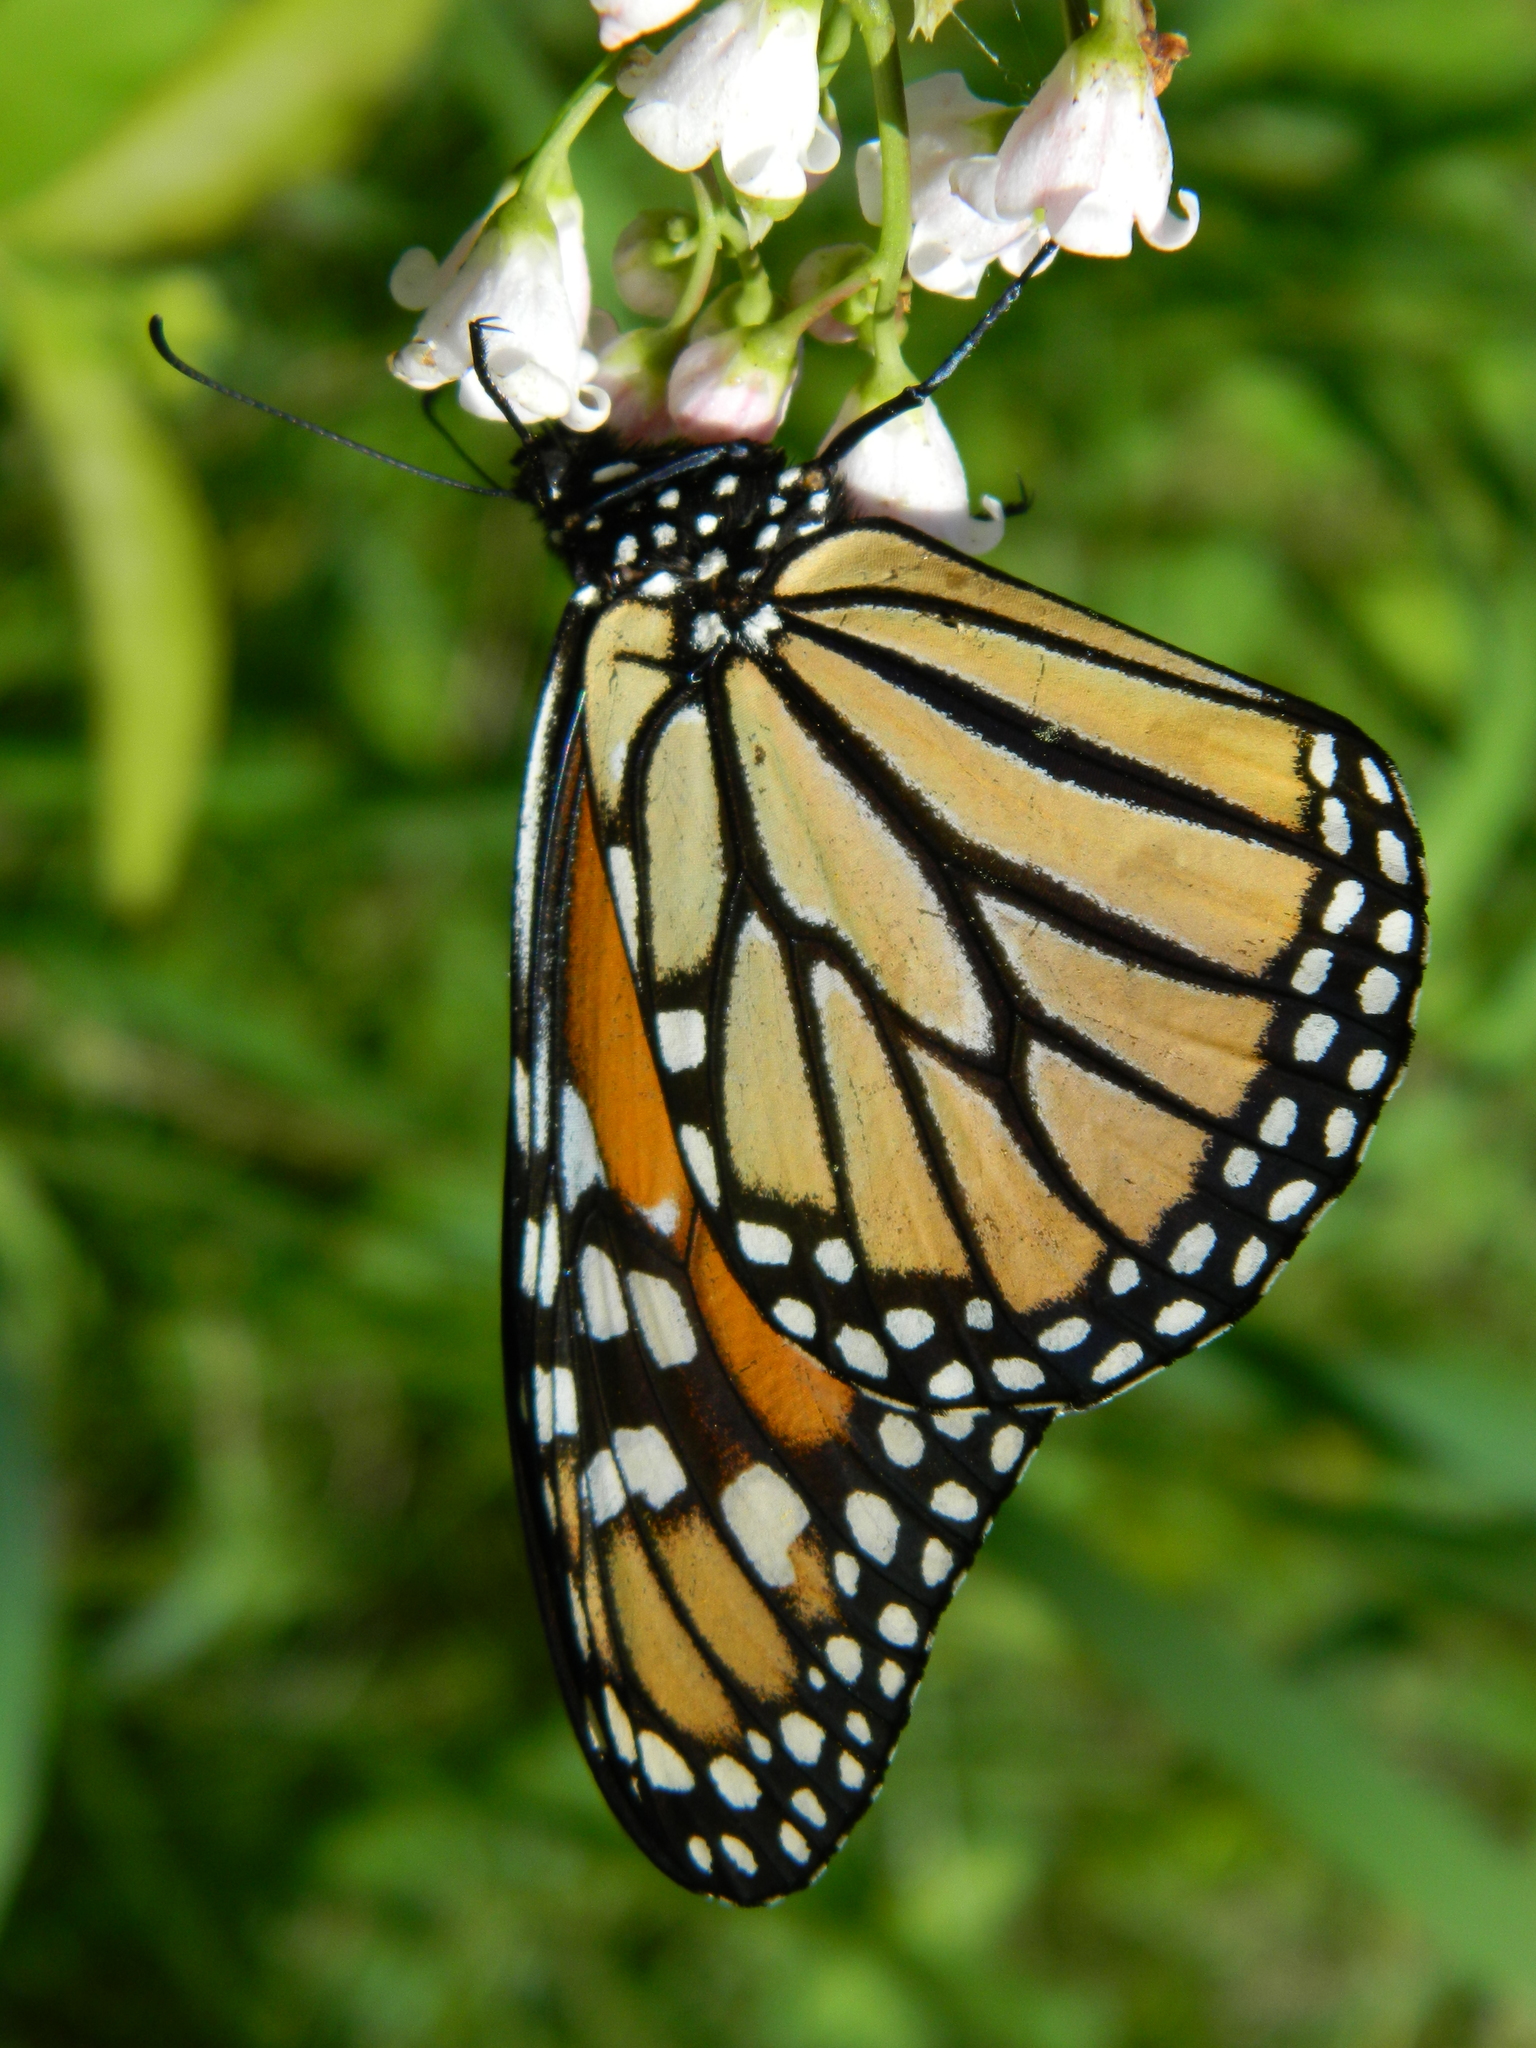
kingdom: Animalia
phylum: Arthropoda
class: Insecta
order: Lepidoptera
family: Nymphalidae
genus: Danaus
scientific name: Danaus plexippus
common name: Monarch
